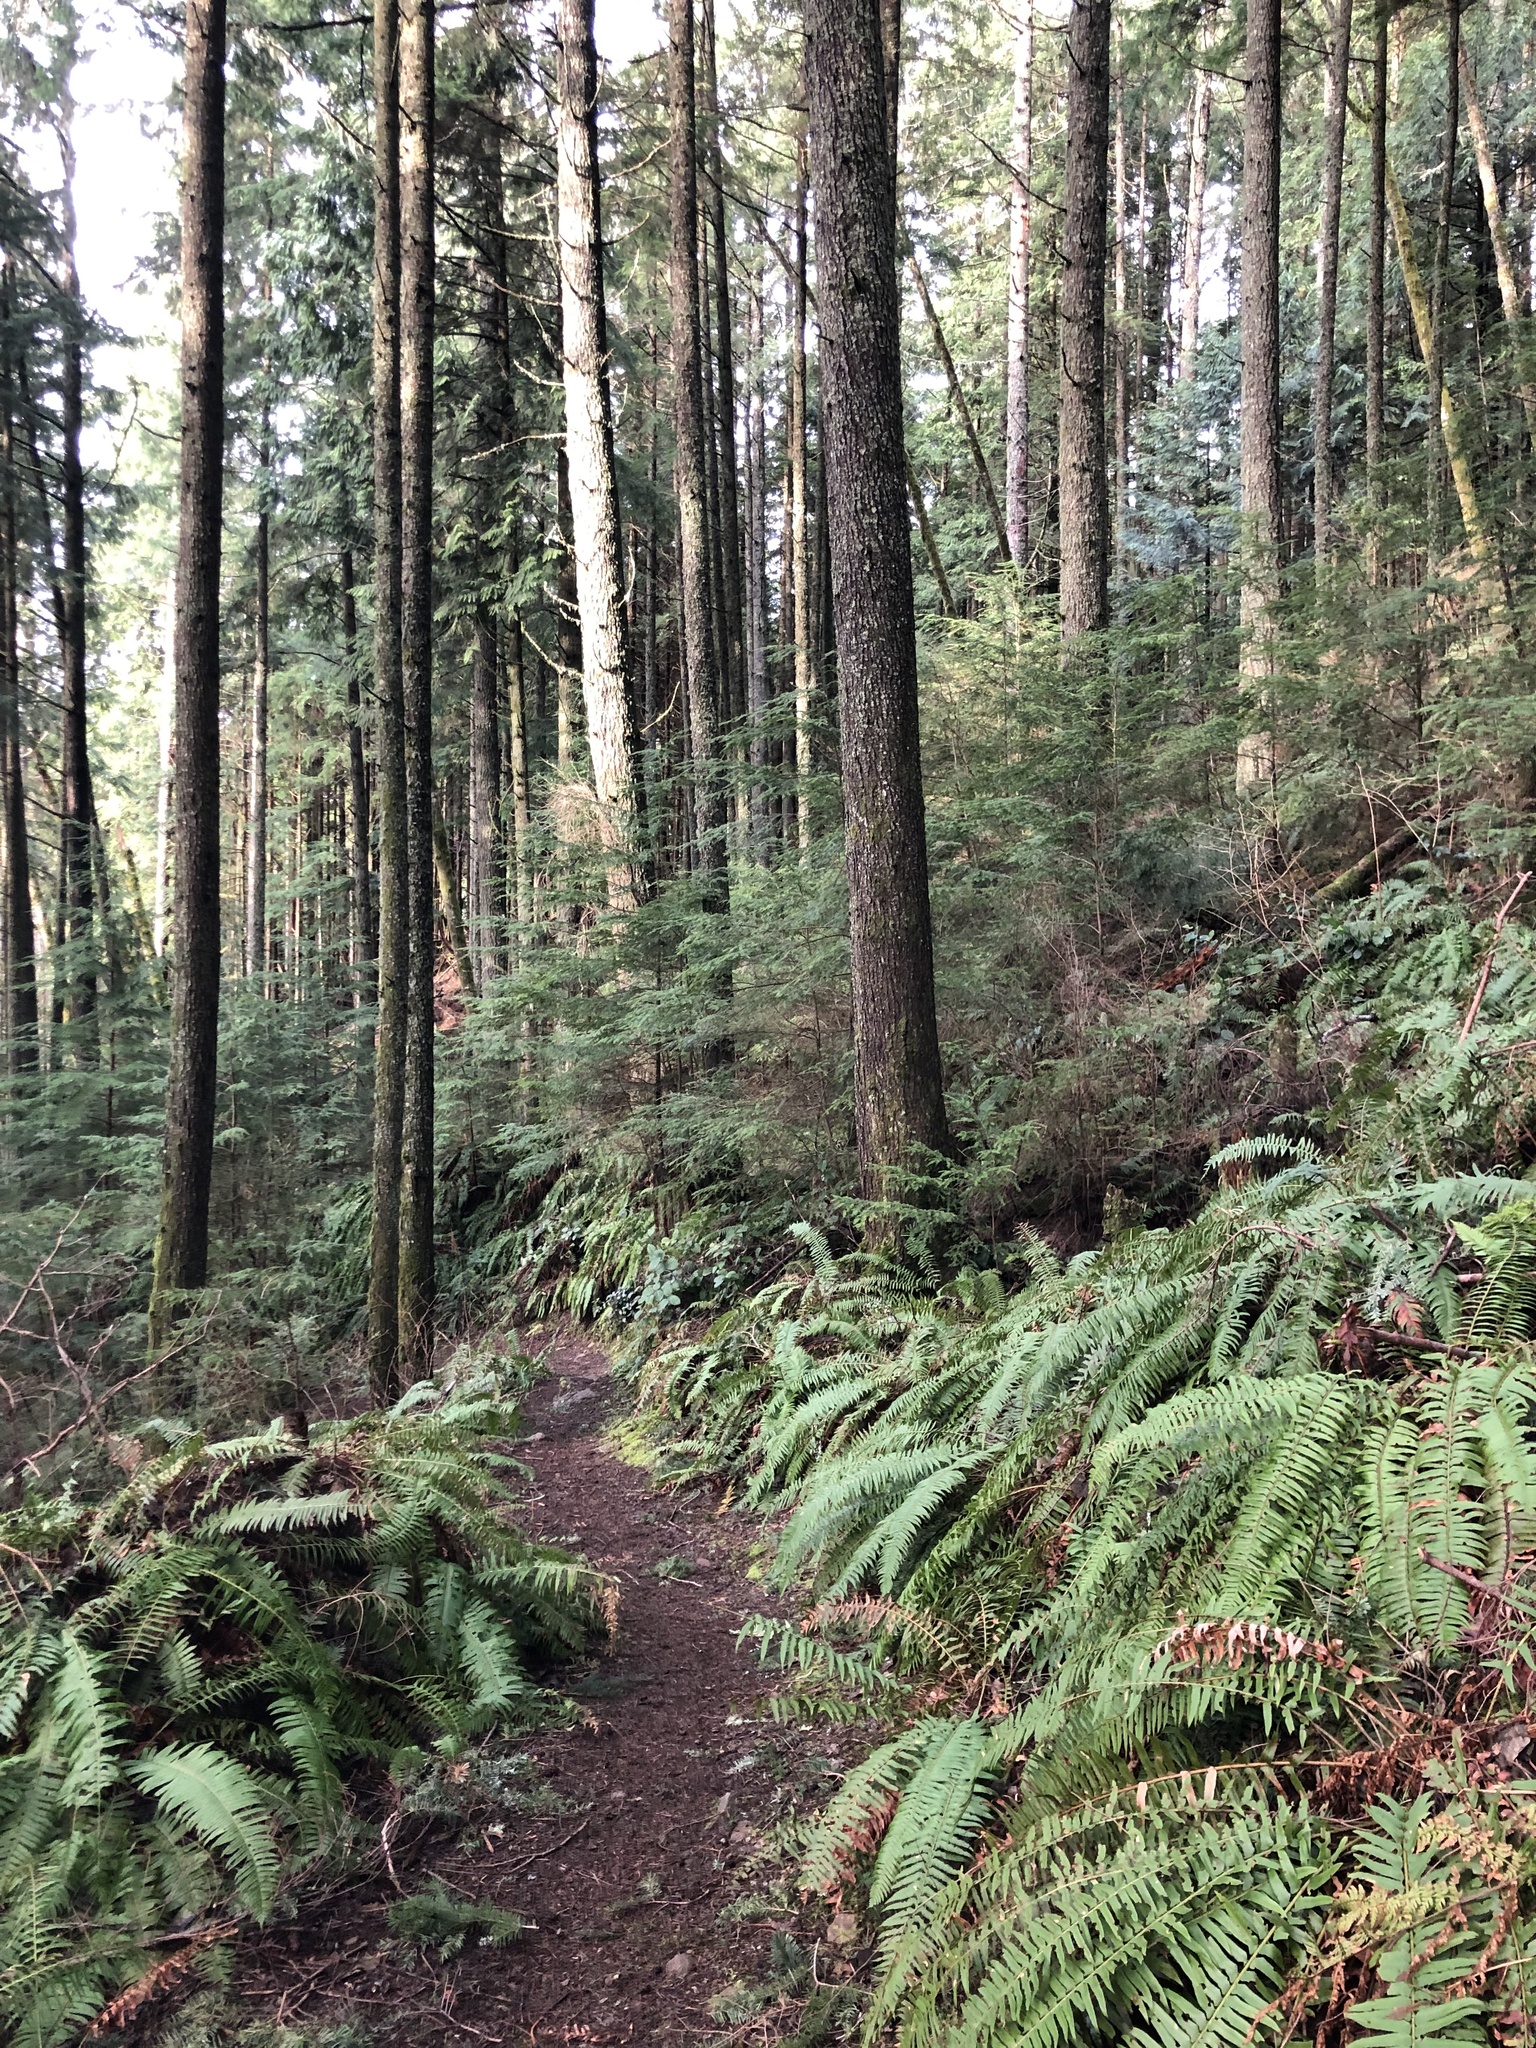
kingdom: Plantae
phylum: Tracheophyta
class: Polypodiopsida
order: Polypodiales
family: Dryopteridaceae
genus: Polystichum
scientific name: Polystichum munitum
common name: Western sword-fern
